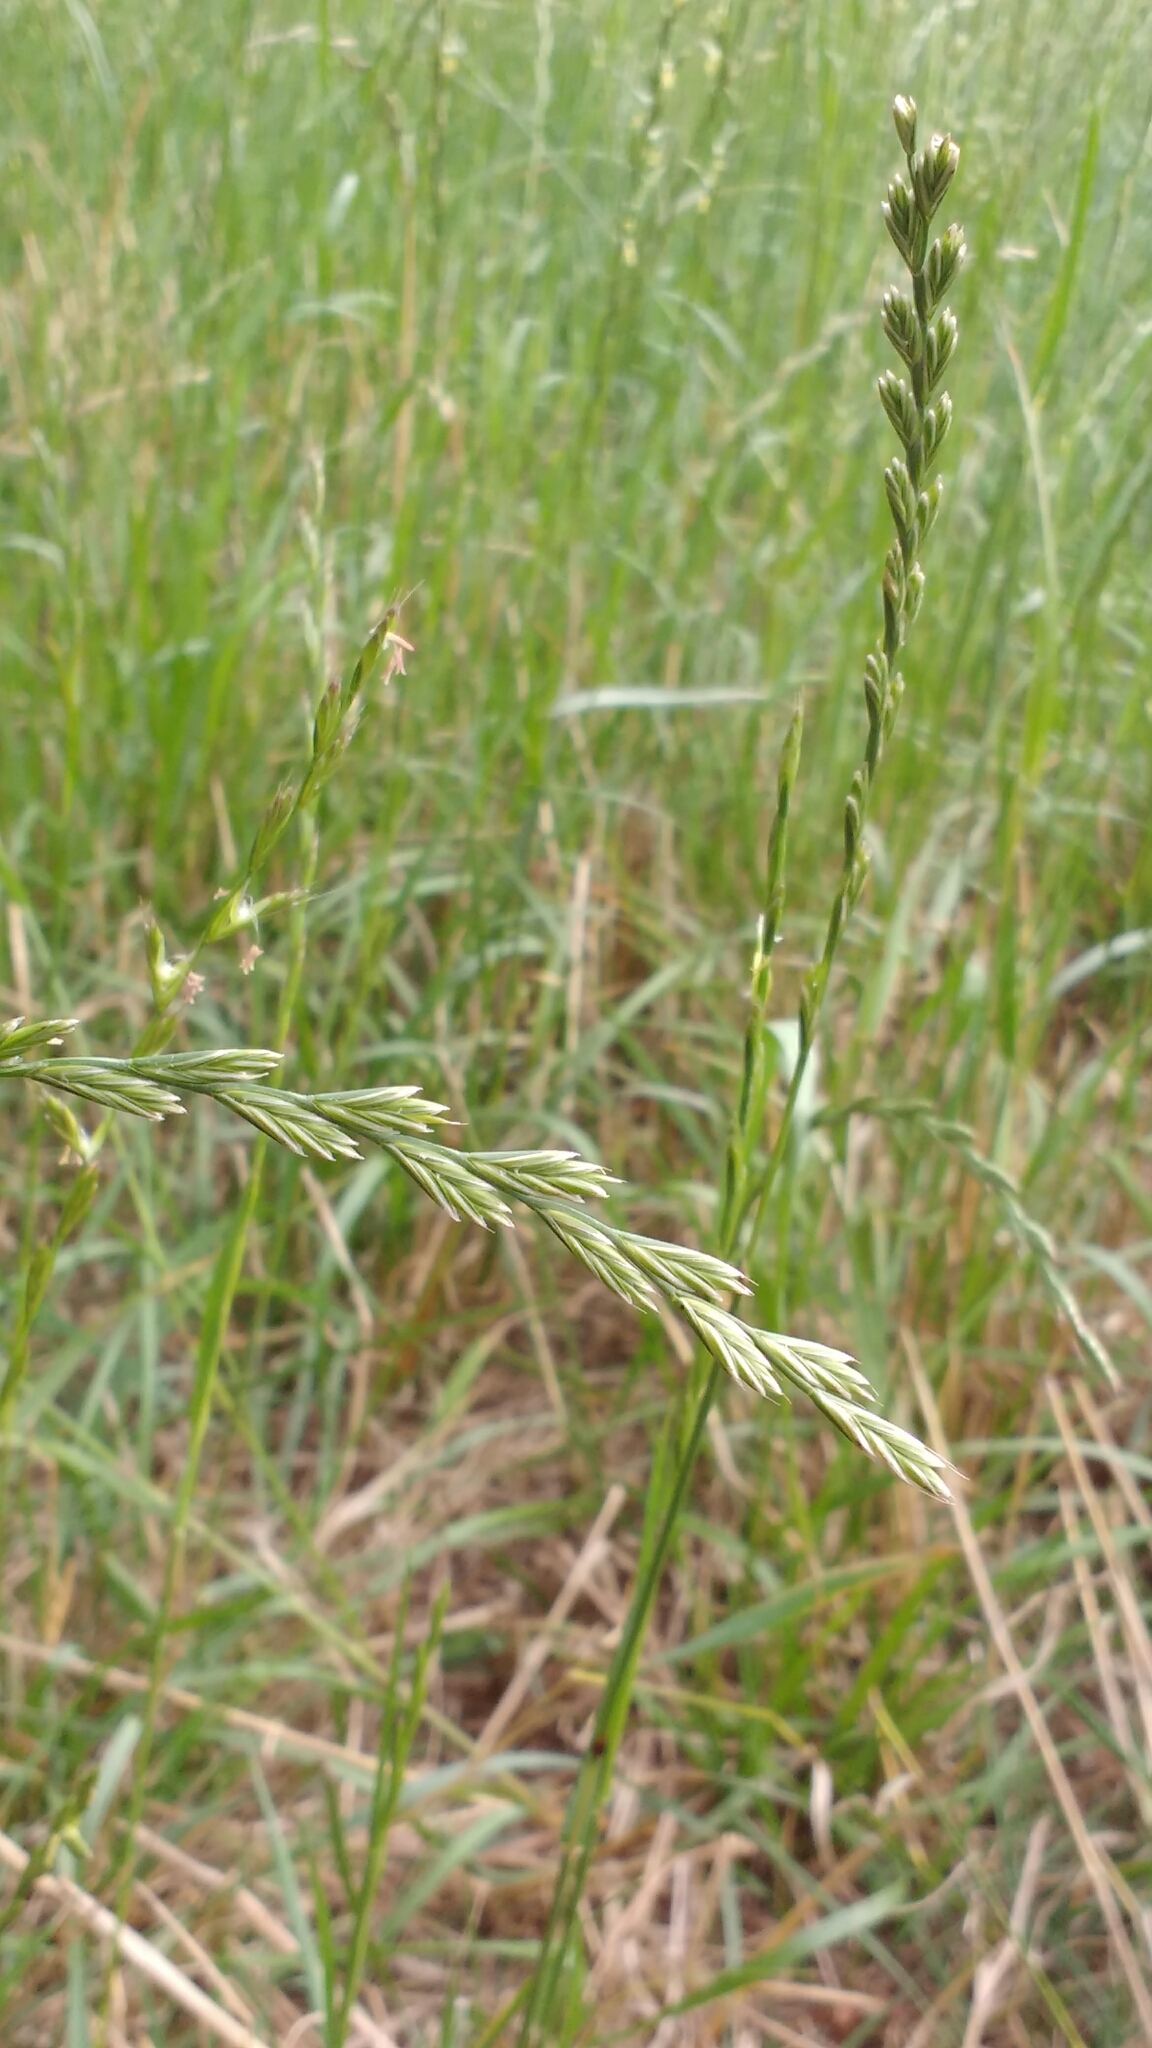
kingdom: Plantae
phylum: Tracheophyta
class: Liliopsida
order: Poales
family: Poaceae
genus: Lolium
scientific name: Lolium perenne
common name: Perennial ryegrass
